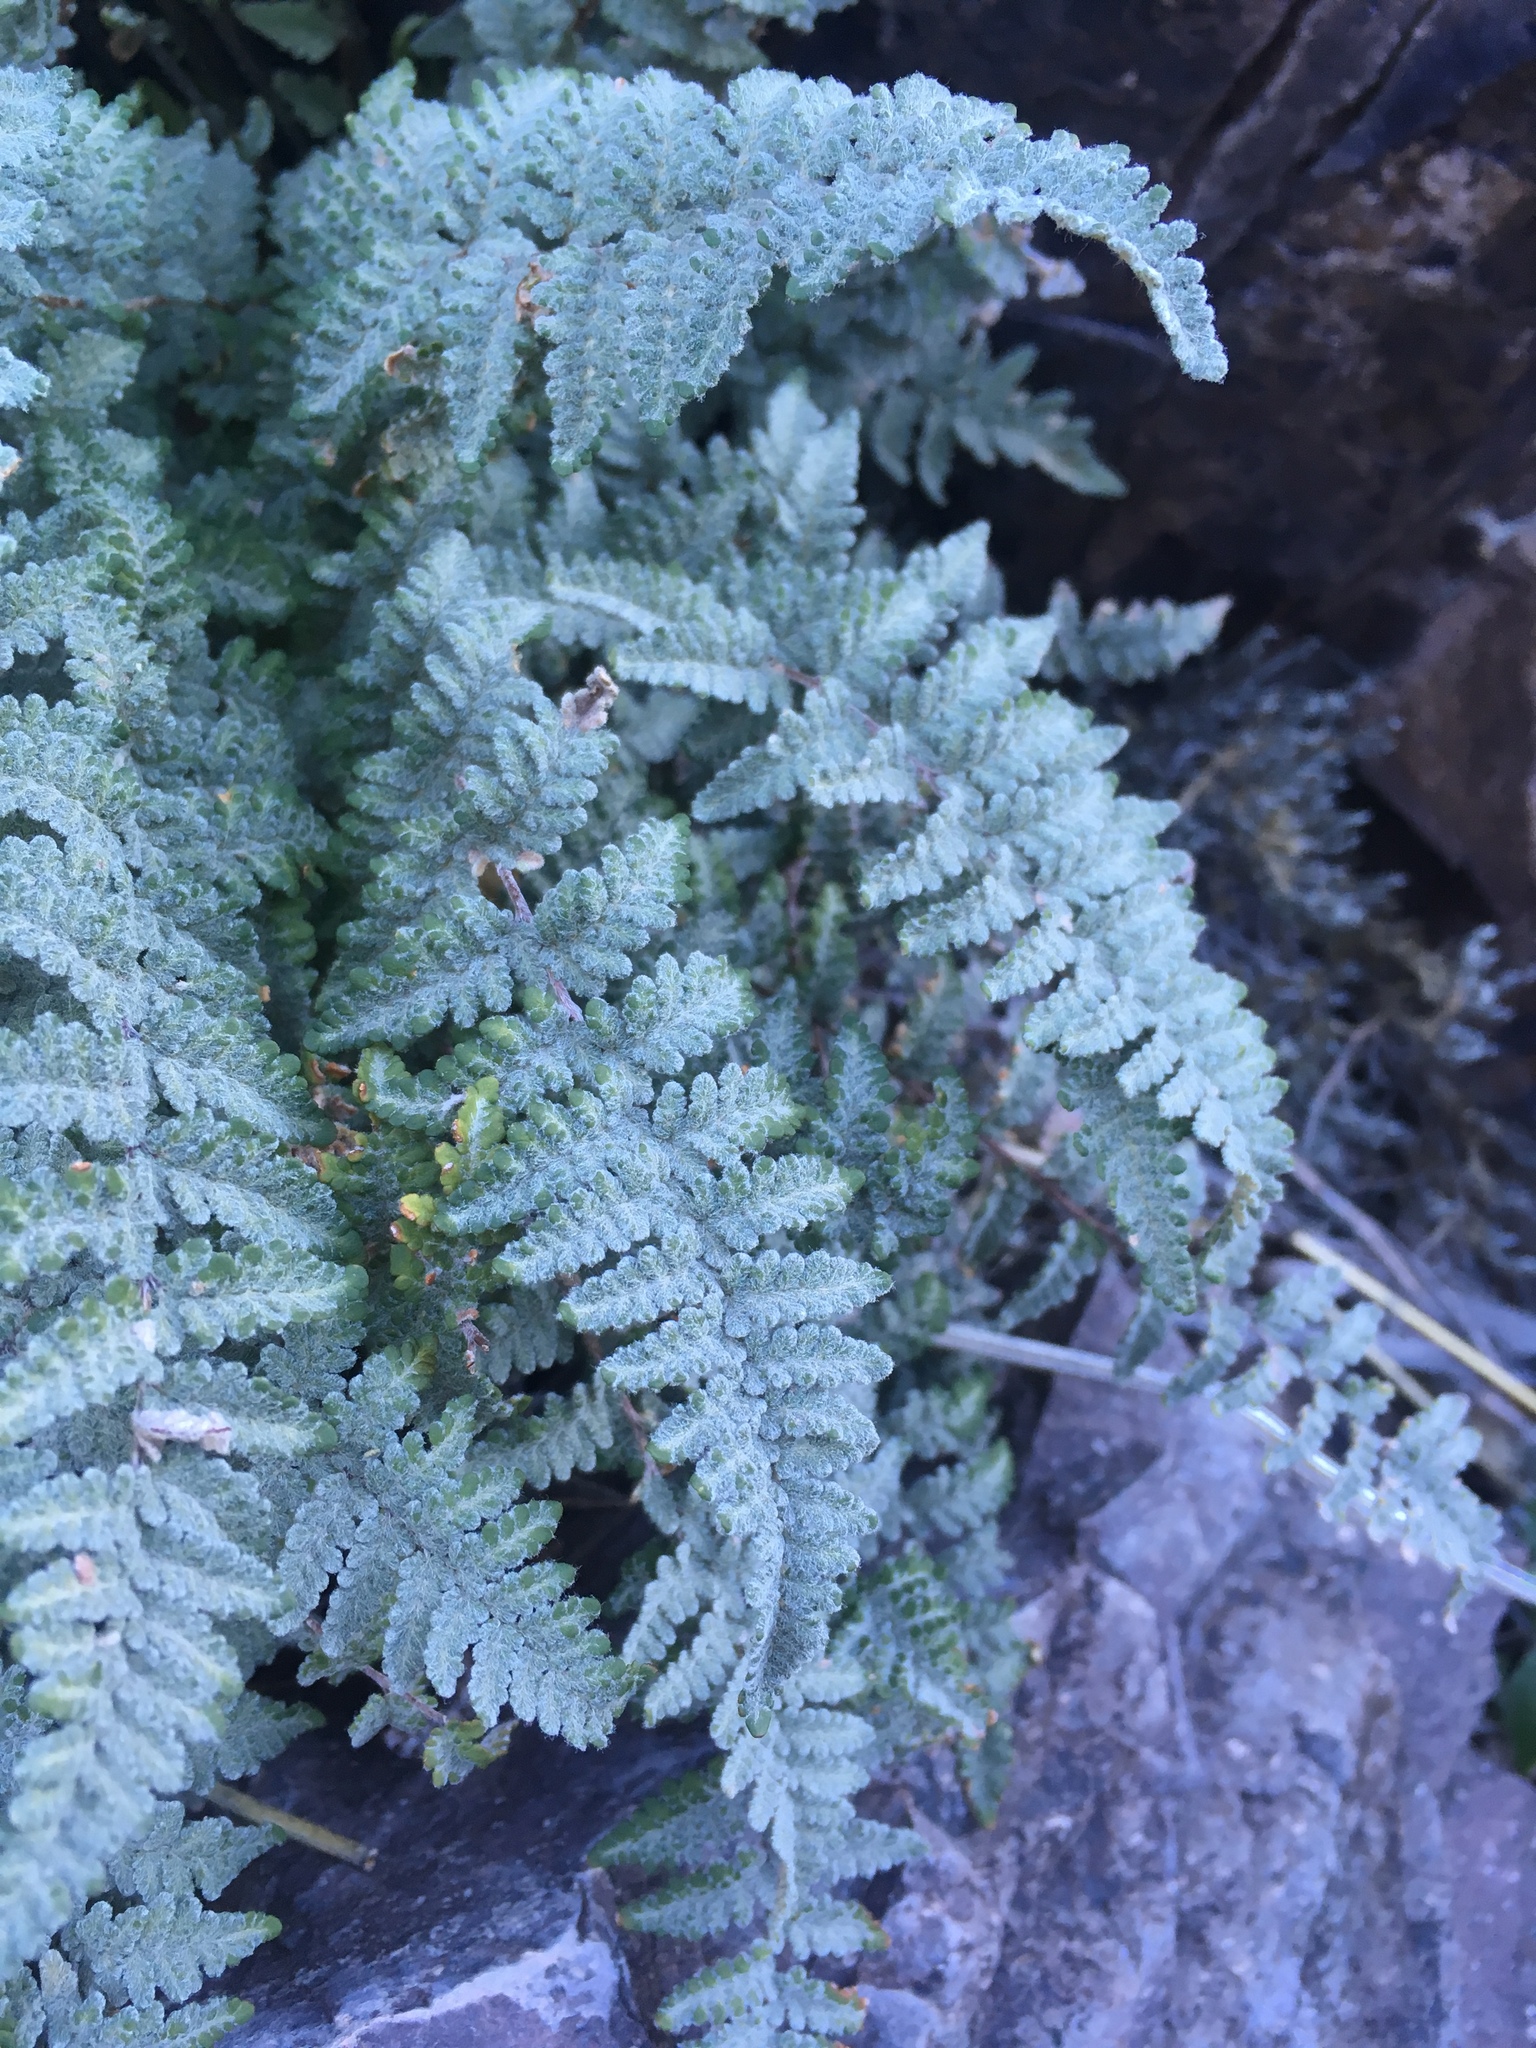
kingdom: Plantae
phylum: Tracheophyta
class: Polypodiopsida
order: Polypodiales
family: Pteridaceae
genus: Myriopteris
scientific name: Myriopteris rufa
